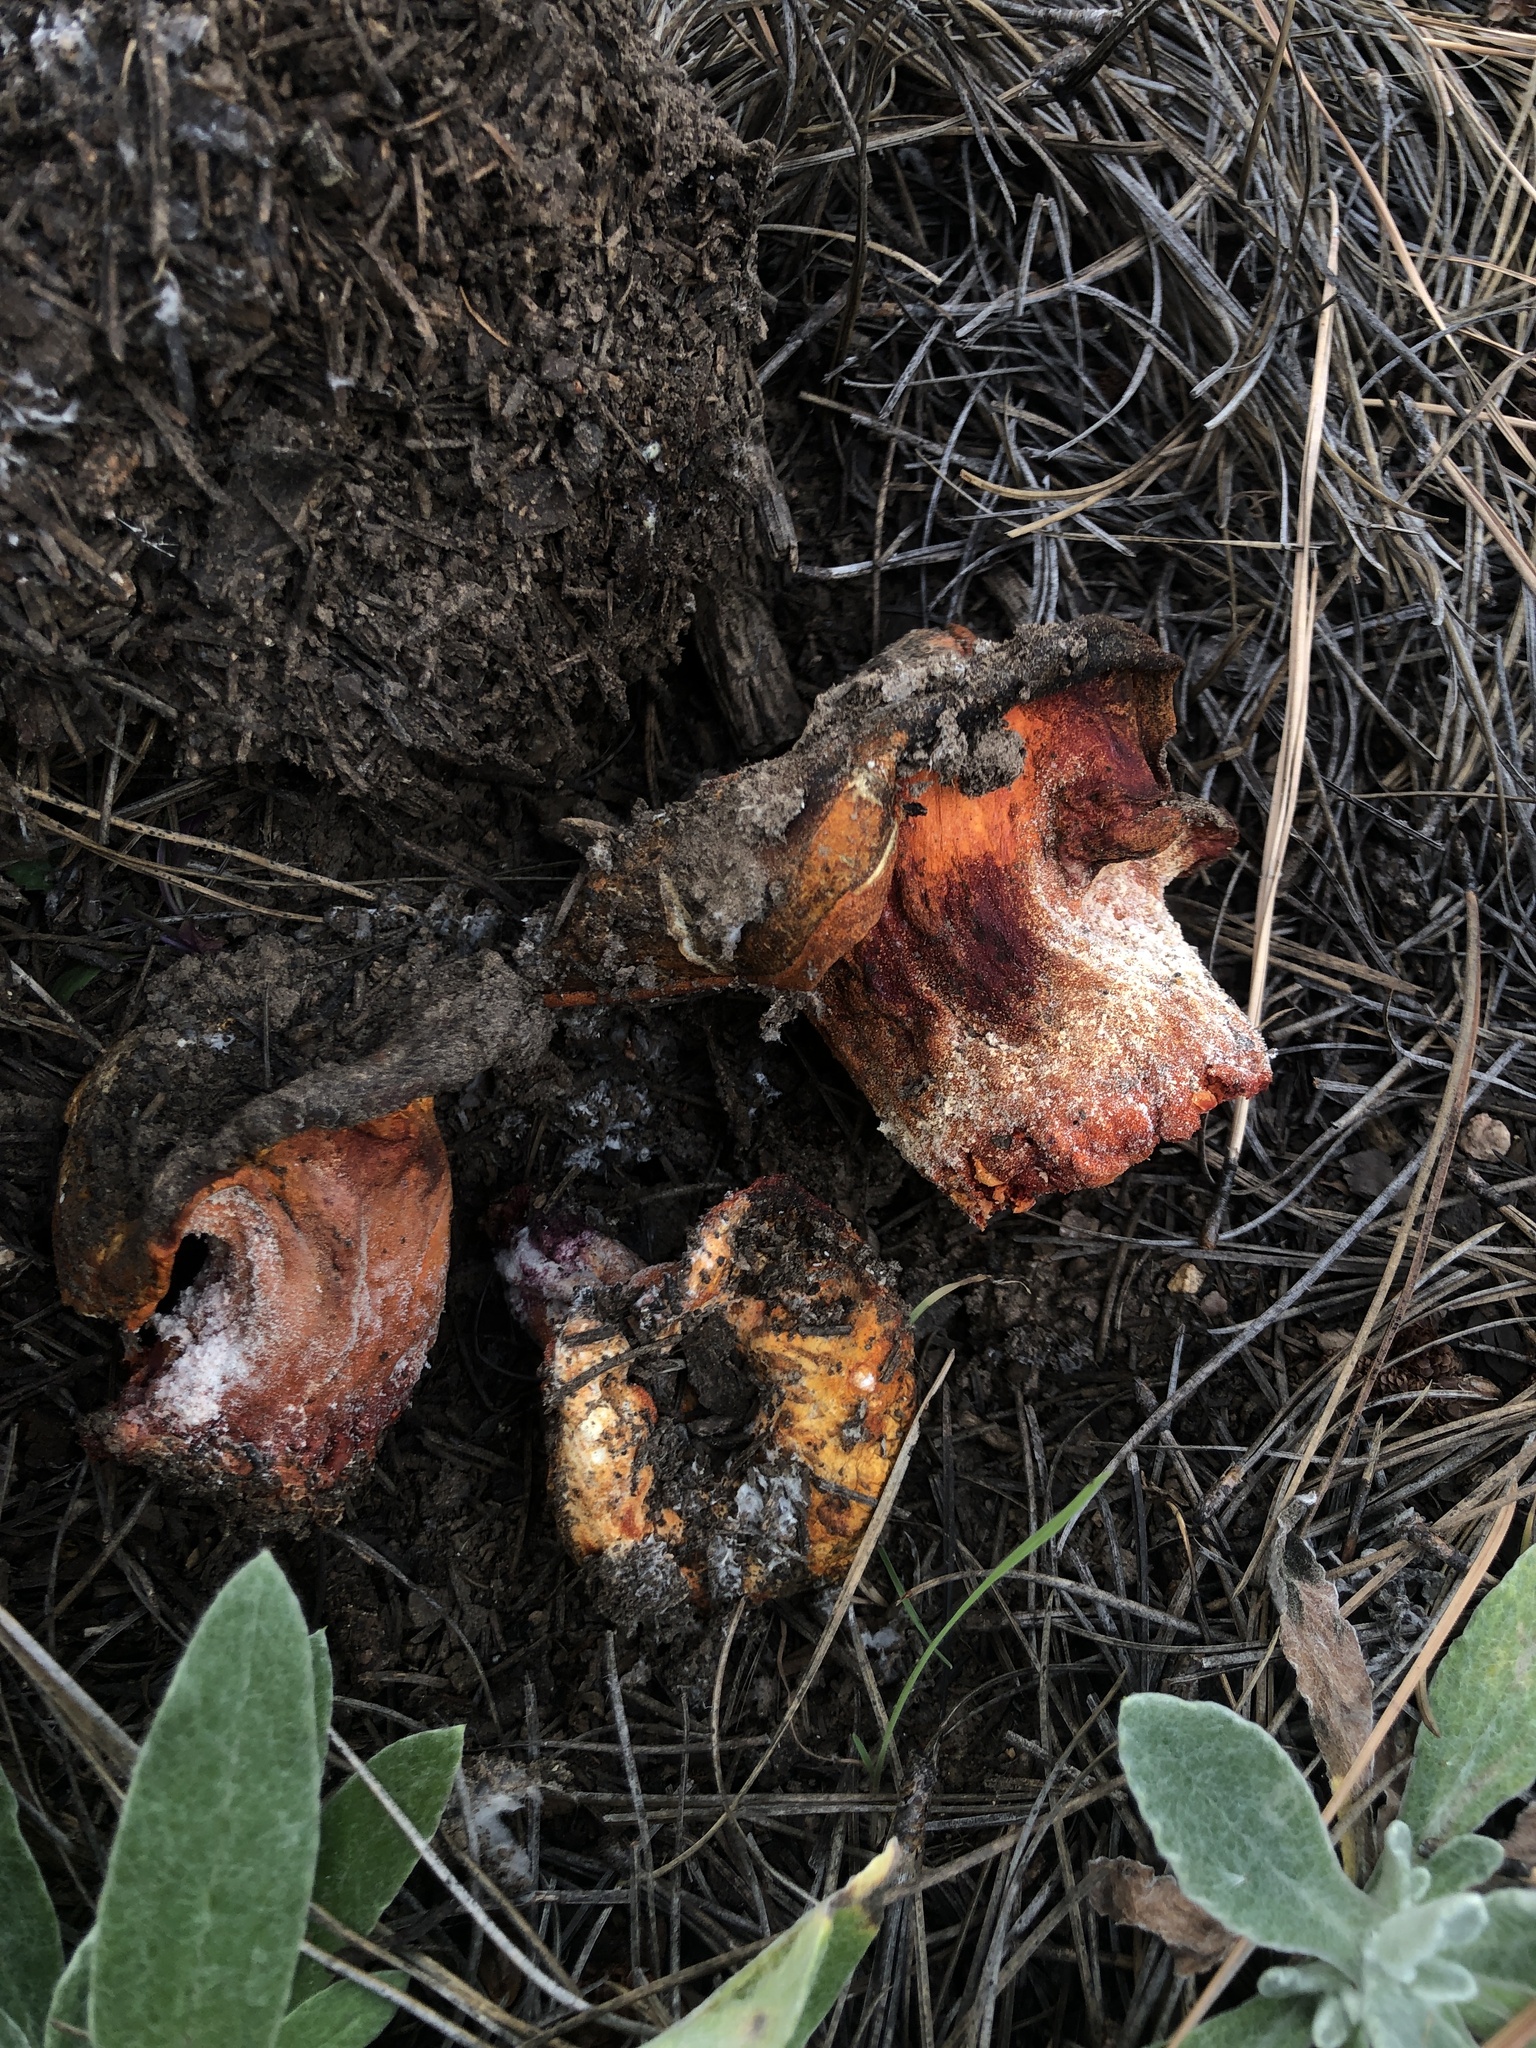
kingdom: Fungi
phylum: Ascomycota
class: Sordariomycetes
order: Hypocreales
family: Hypocreaceae
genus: Hypomyces
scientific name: Hypomyces lactifluorum
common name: Lobster mushroom
